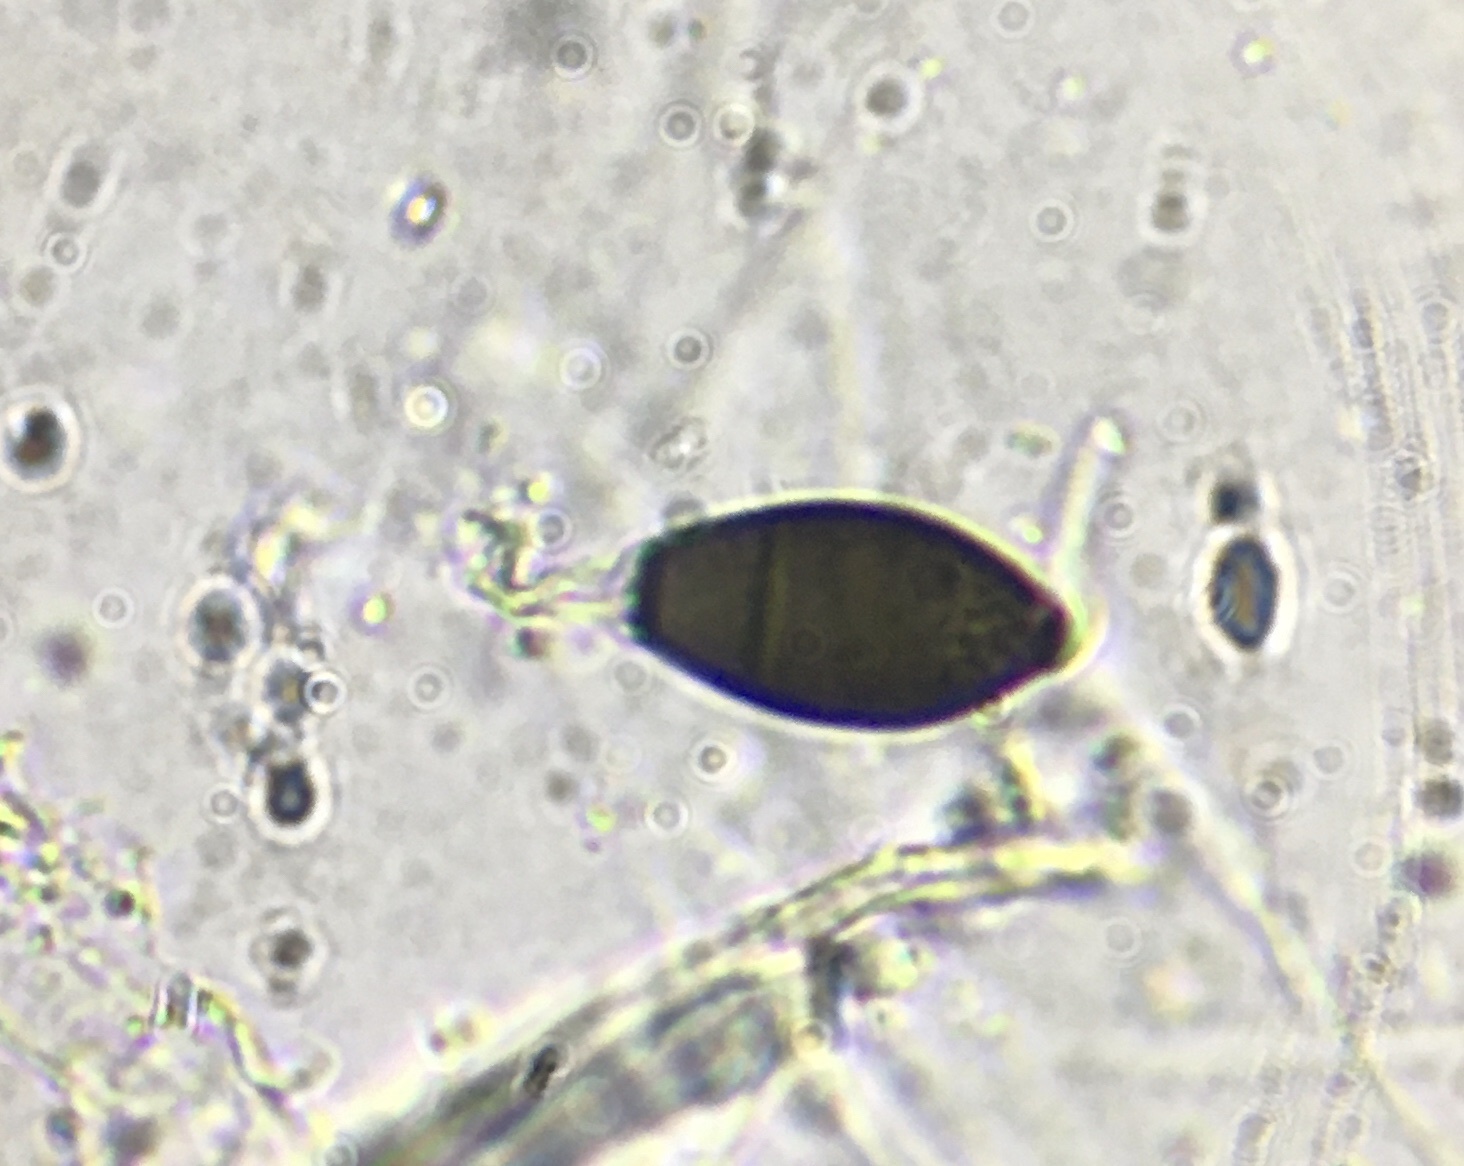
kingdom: Fungi
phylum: Ascomycota
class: Sordariomycetes
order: Sordariales
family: Neoschizotheciaceae
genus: Cercophora
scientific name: Cercophora silvatica
